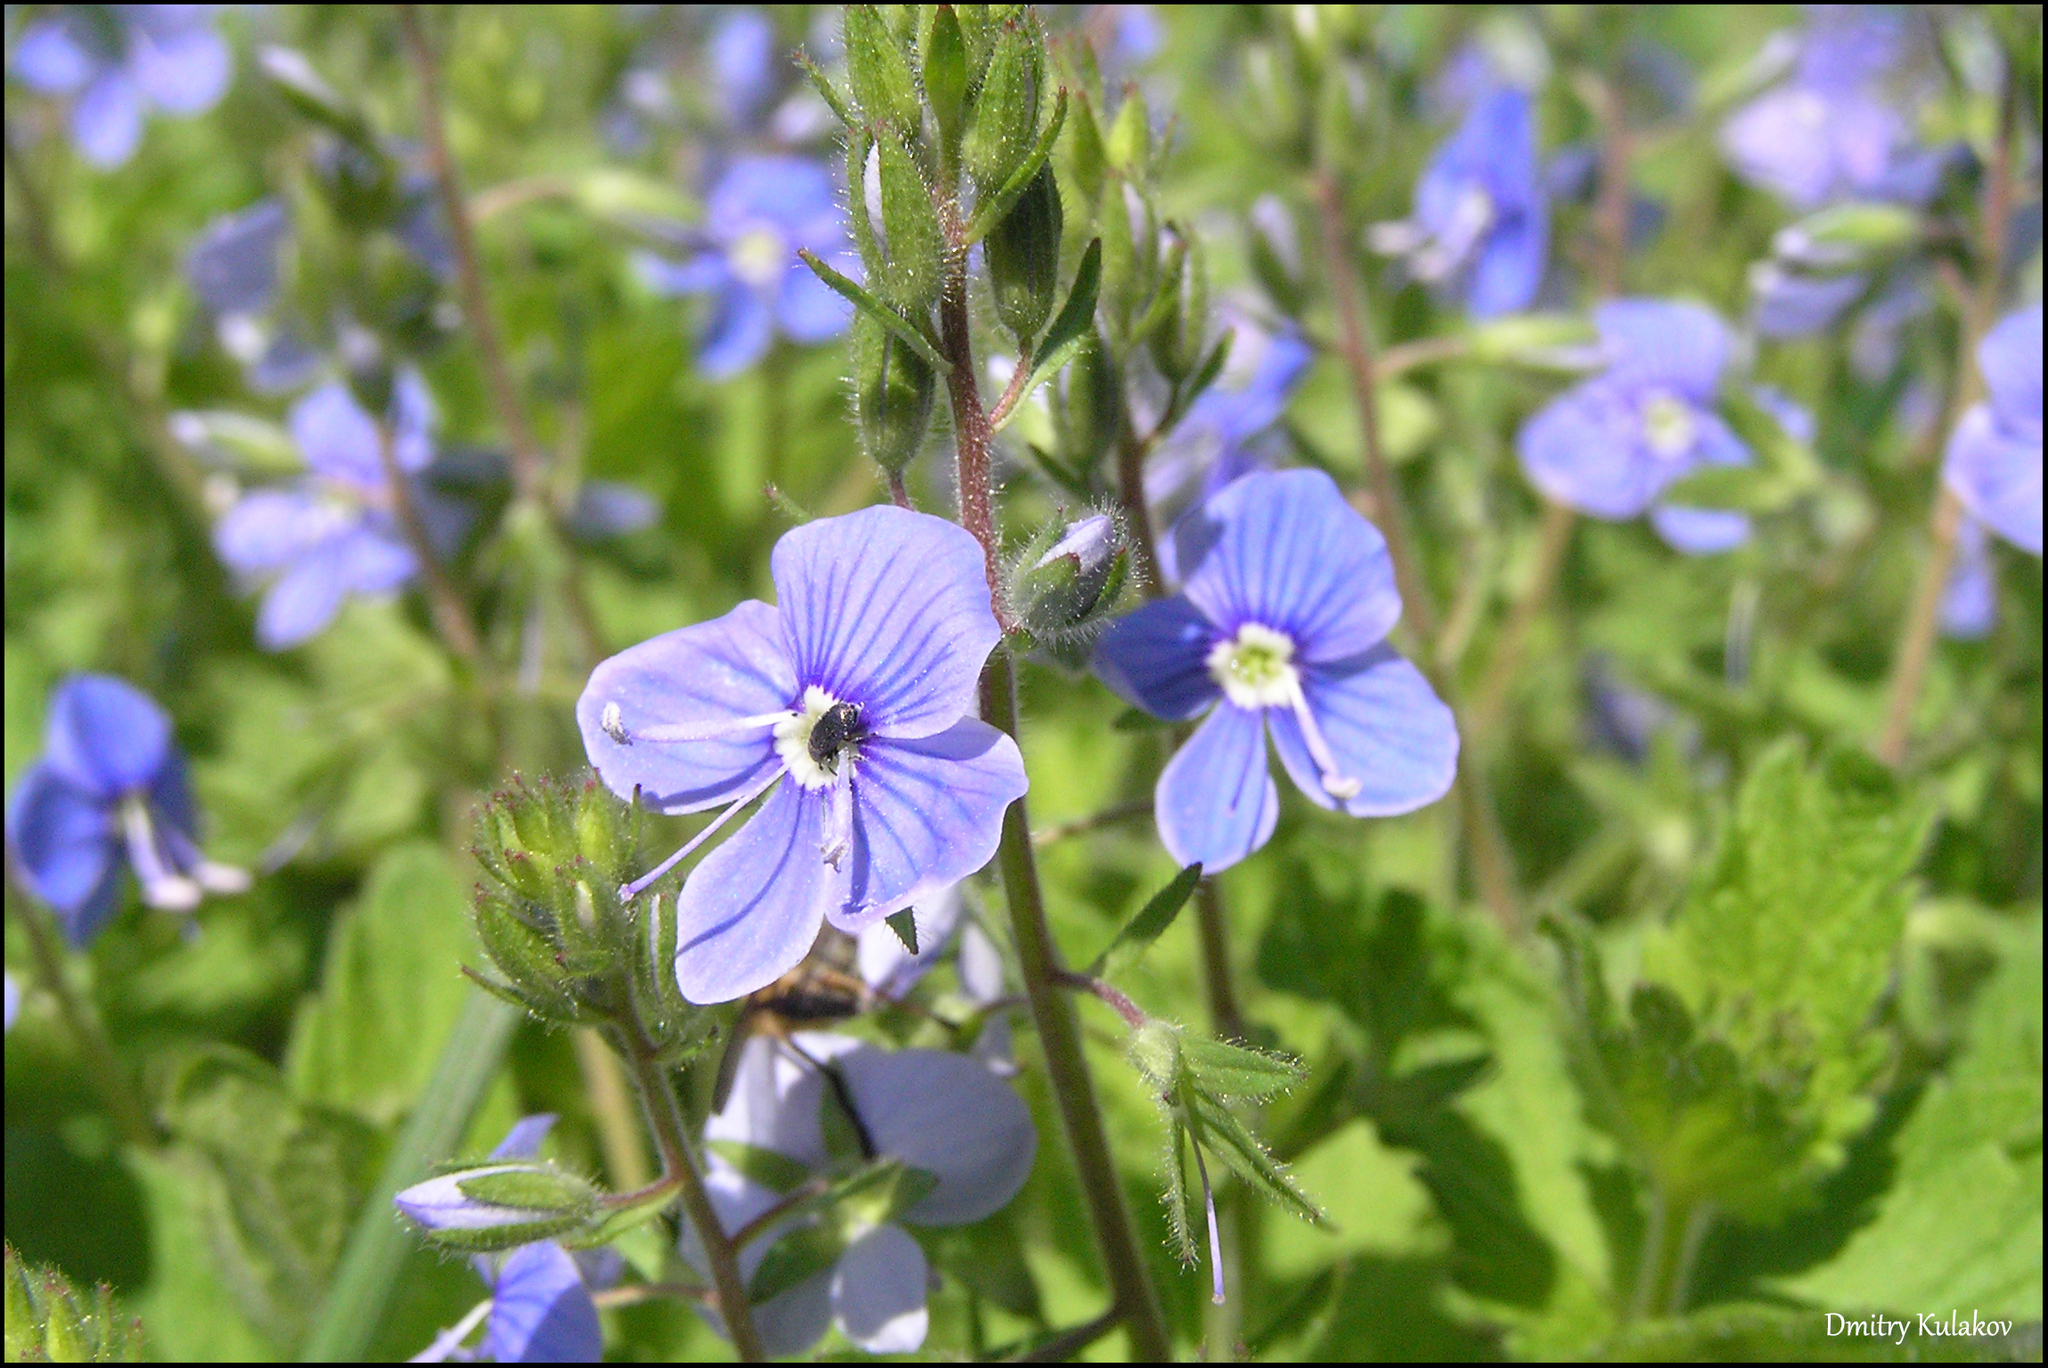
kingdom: Plantae
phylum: Tracheophyta
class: Magnoliopsida
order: Lamiales
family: Plantaginaceae
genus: Veronica
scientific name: Veronica chamaedrys
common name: Germander speedwell
